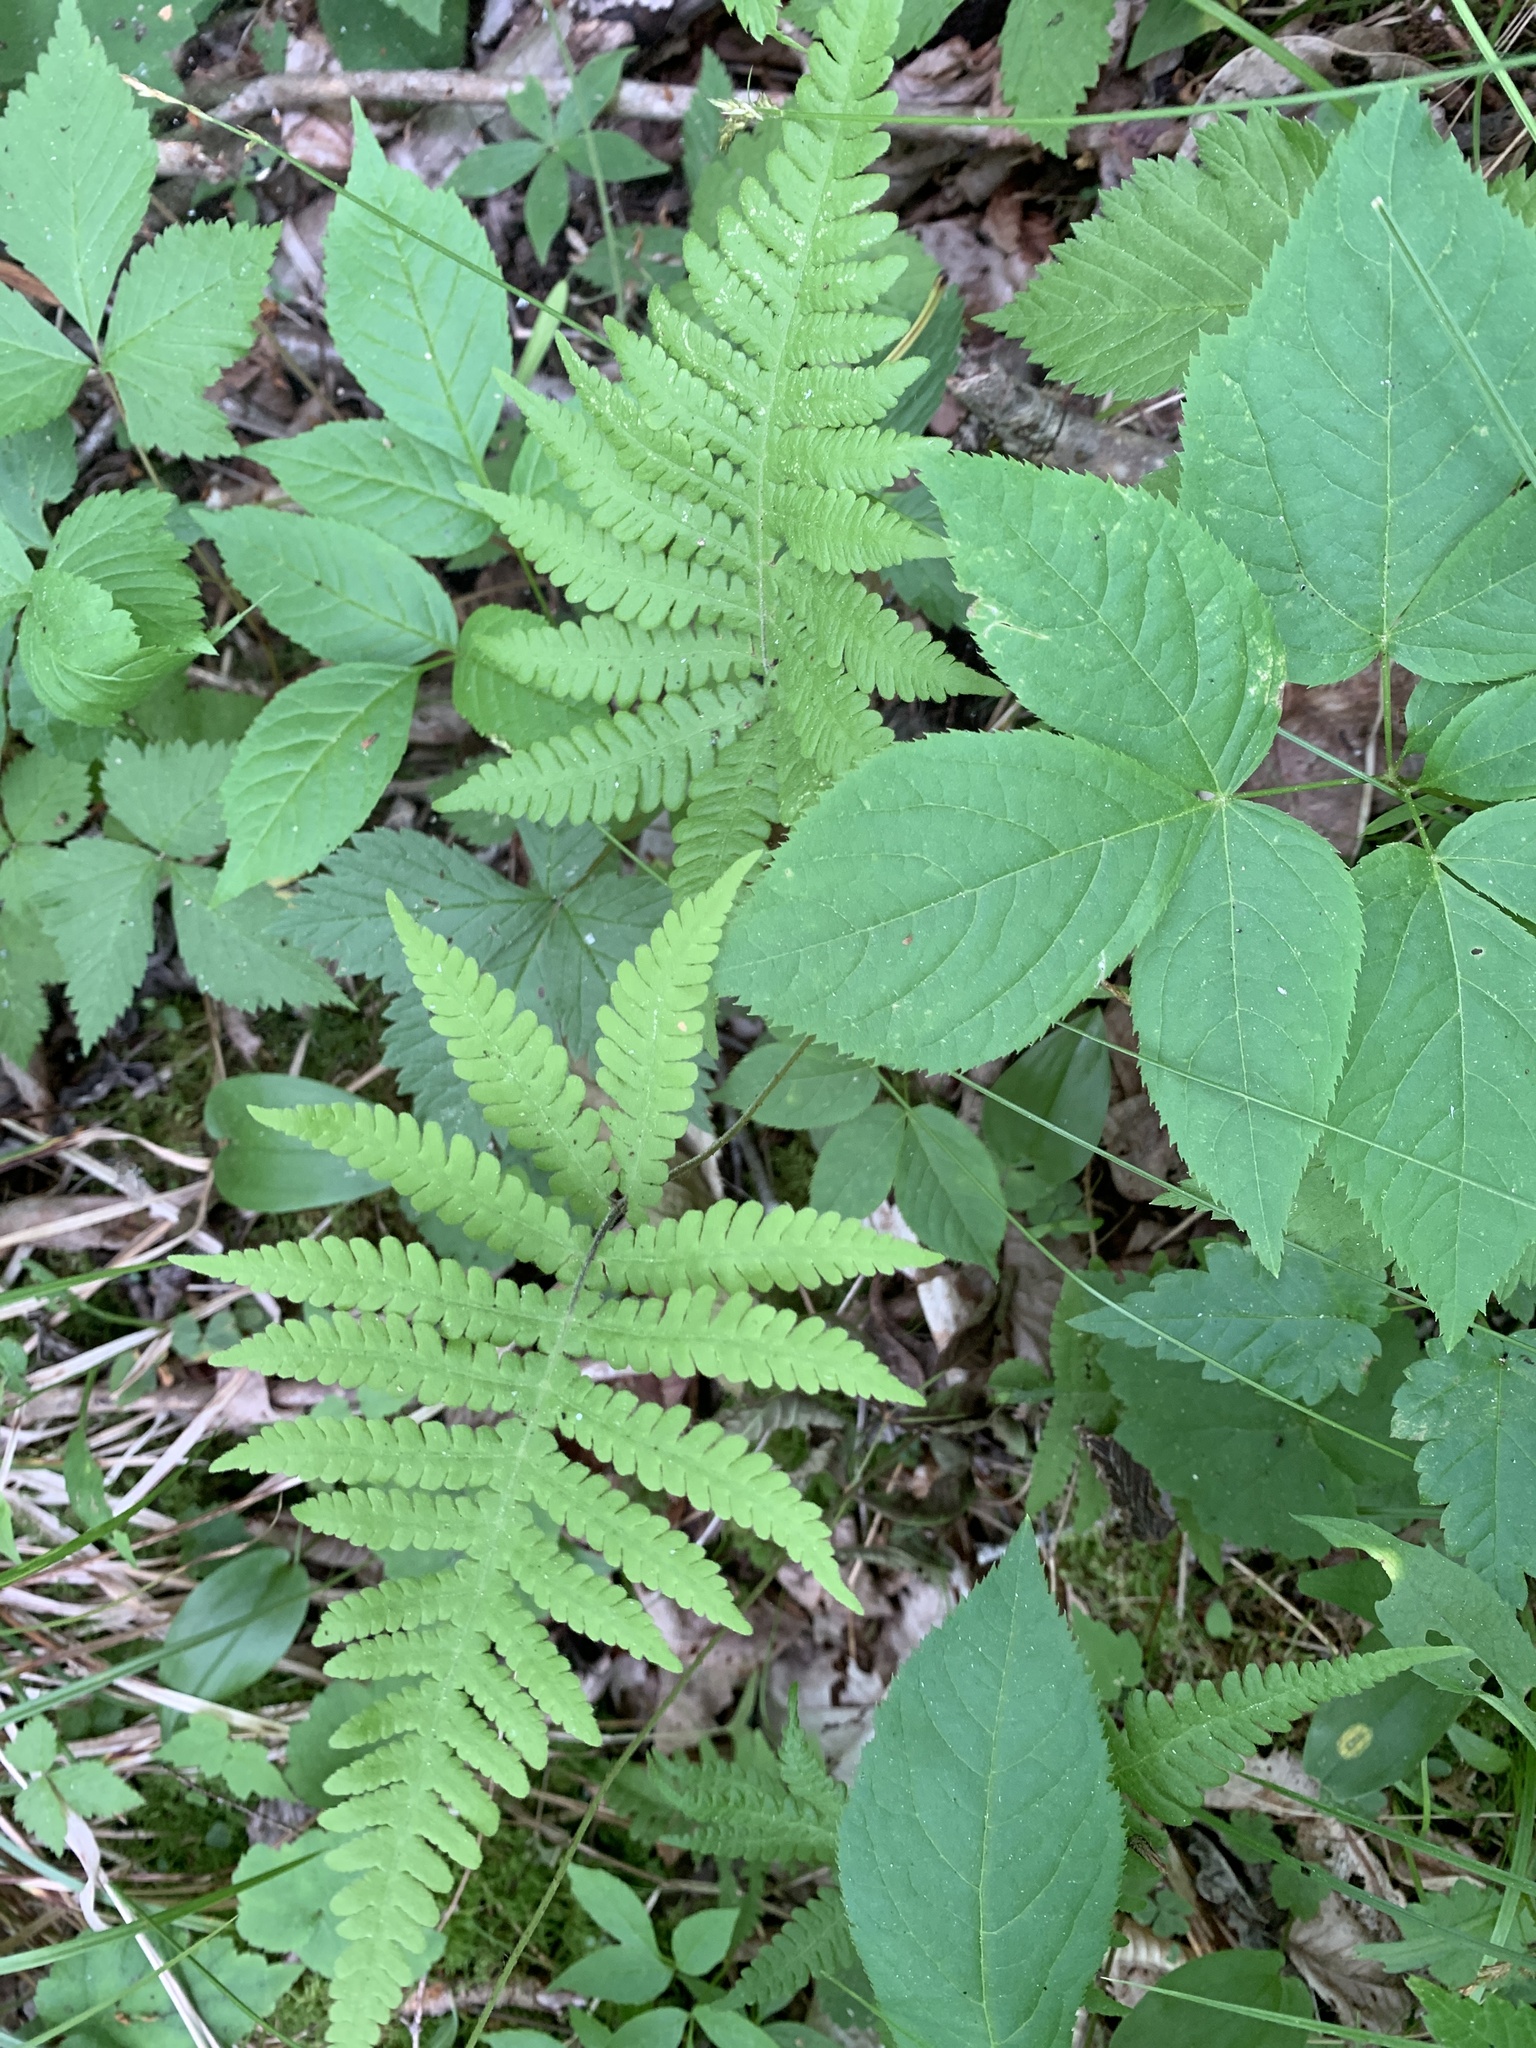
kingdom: Plantae
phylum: Tracheophyta
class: Polypodiopsida
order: Polypodiales
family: Thelypteridaceae
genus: Phegopteris
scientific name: Phegopteris connectilis
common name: Beech fern
